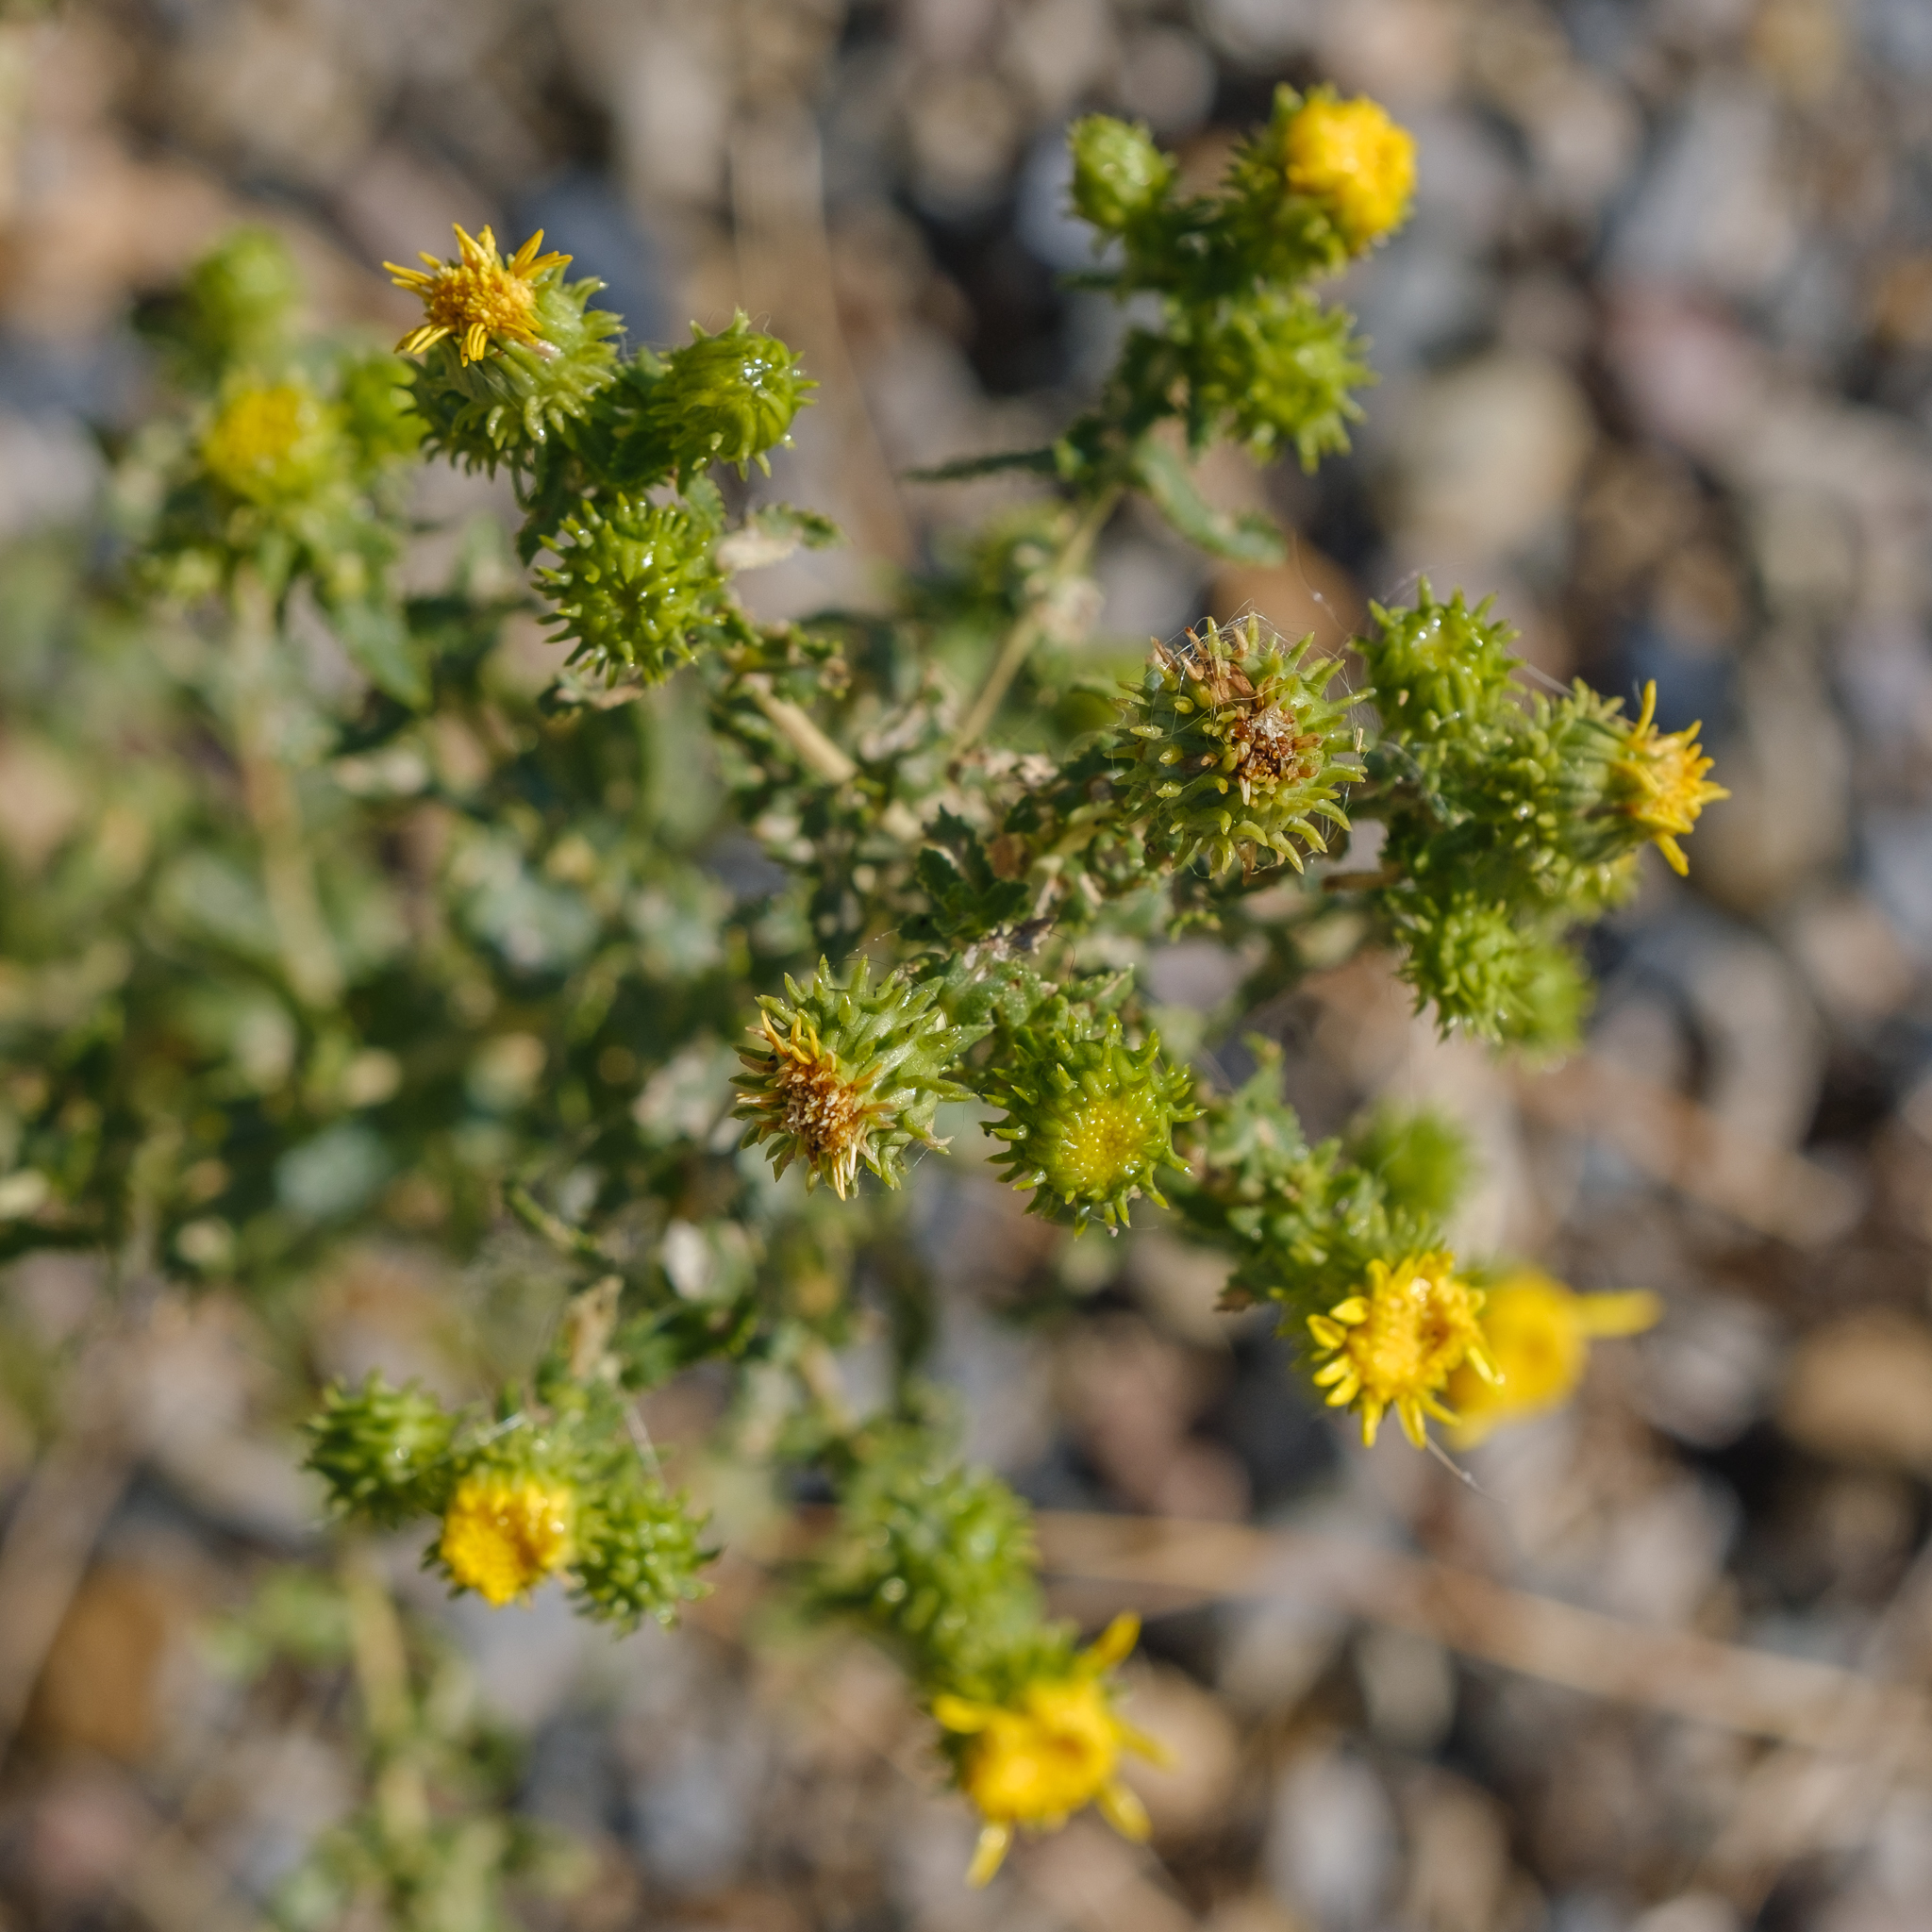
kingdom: Plantae
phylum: Tracheophyta
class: Magnoliopsida
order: Asterales
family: Asteraceae
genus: Grindelia
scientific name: Grindelia squarrosa
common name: Curly-cup gumweed
